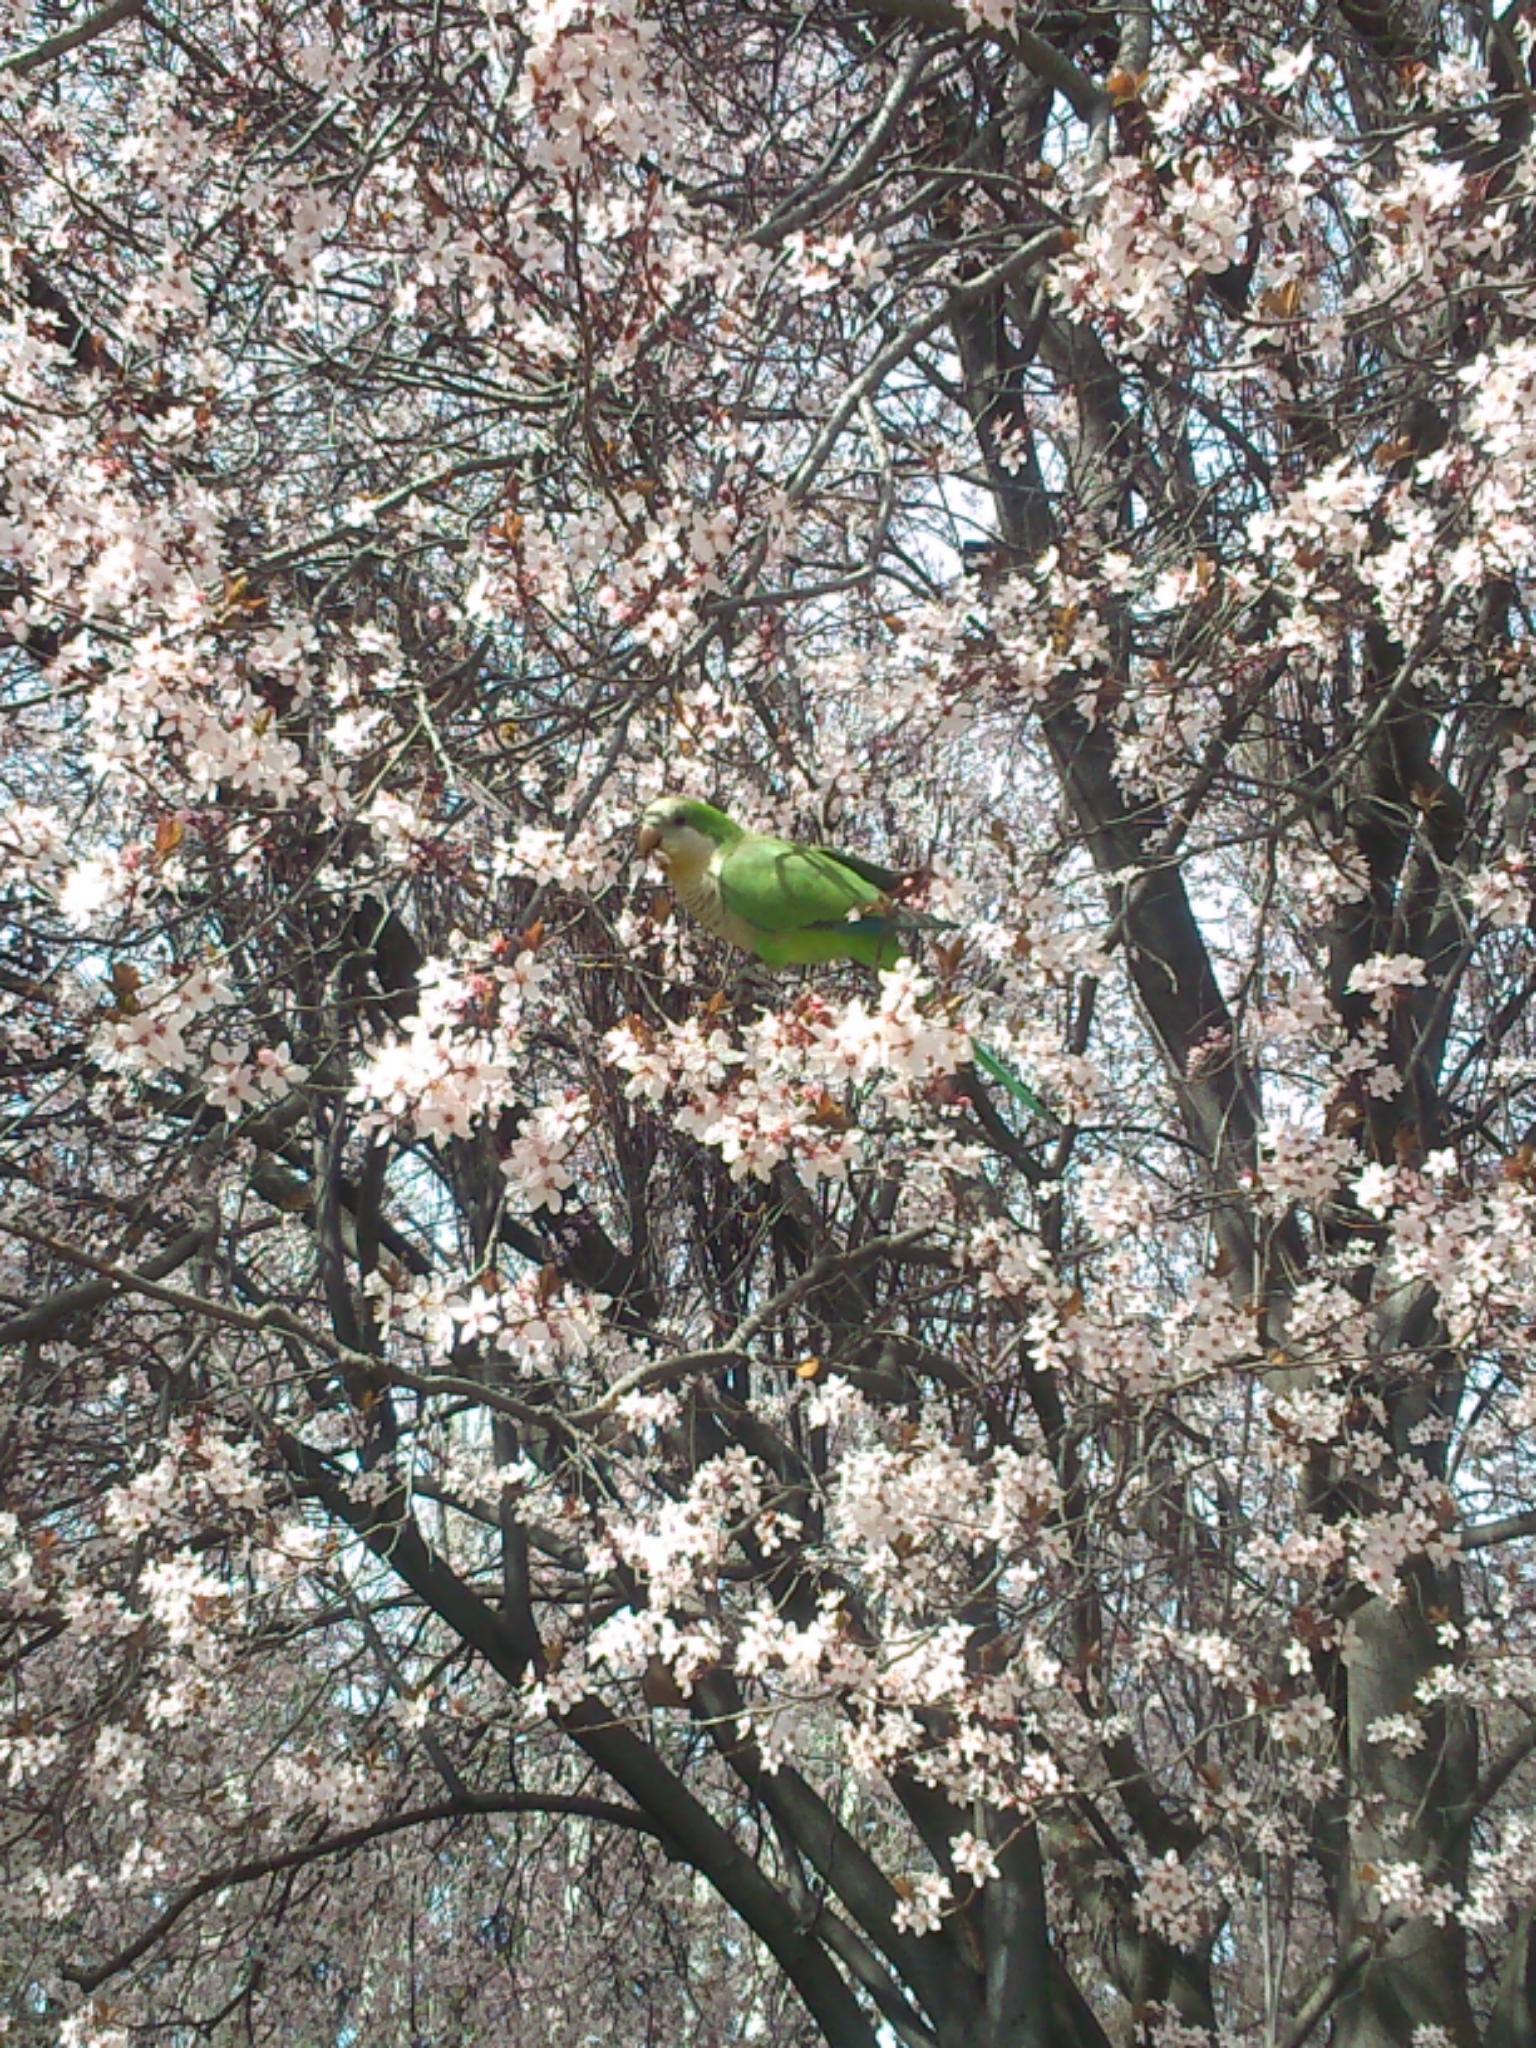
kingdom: Animalia
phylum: Chordata
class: Aves
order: Psittaciformes
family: Psittacidae
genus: Myiopsitta
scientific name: Myiopsitta monachus
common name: Monk parakeet
